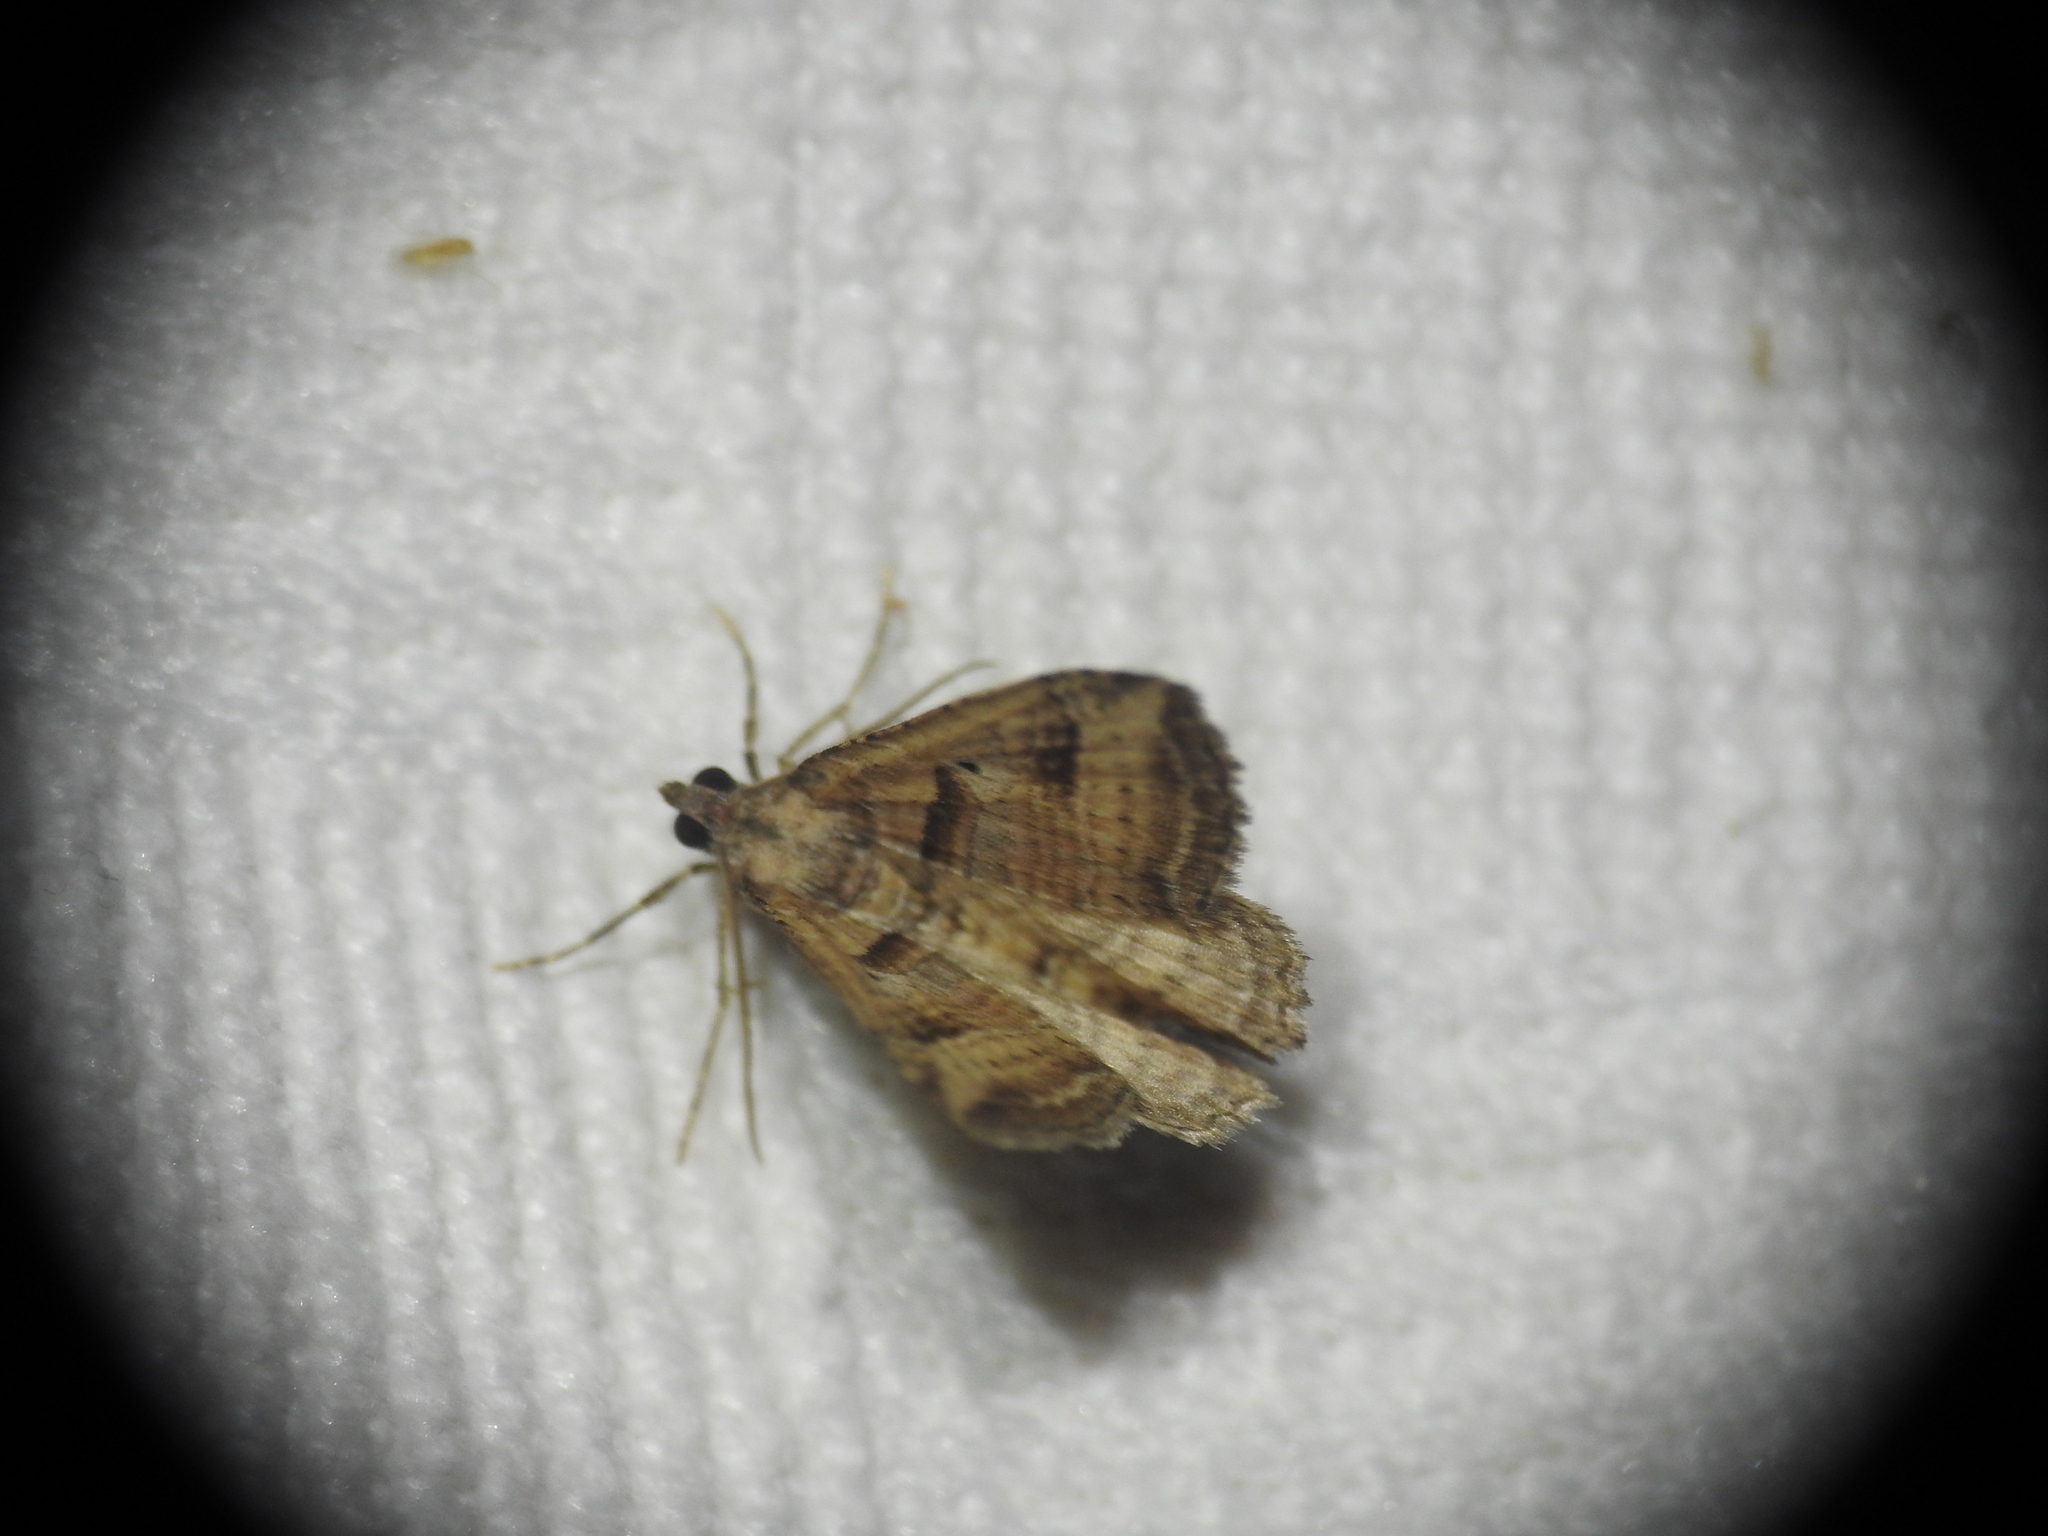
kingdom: Animalia
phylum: Arthropoda
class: Insecta
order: Lepidoptera
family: Geometridae
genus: Costaconvexa
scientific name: Costaconvexa polygrammata
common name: Many-lined
